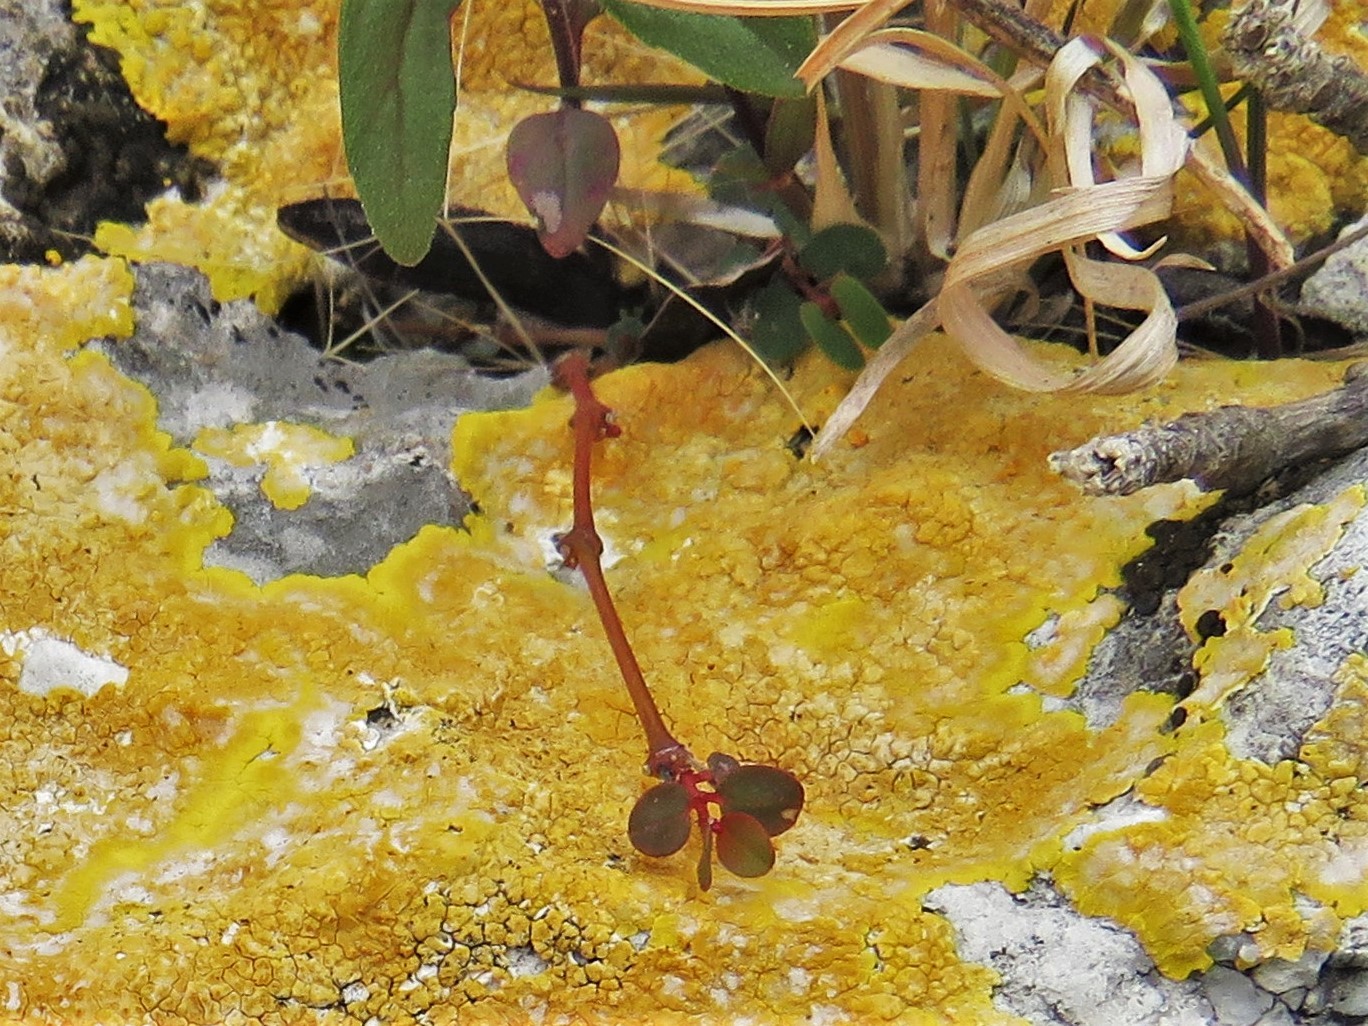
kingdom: Plantae
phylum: Tracheophyta
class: Magnoliopsida
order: Malpighiales
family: Euphorbiaceae
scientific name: Euphorbiaceae
